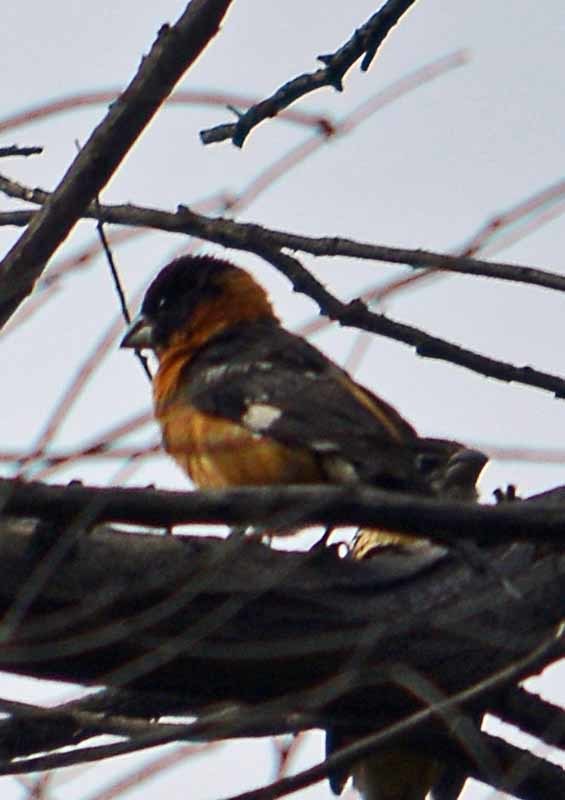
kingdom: Animalia
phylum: Chordata
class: Aves
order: Passeriformes
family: Cardinalidae
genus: Pheucticus
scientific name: Pheucticus melanocephalus
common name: Black-headed grosbeak
